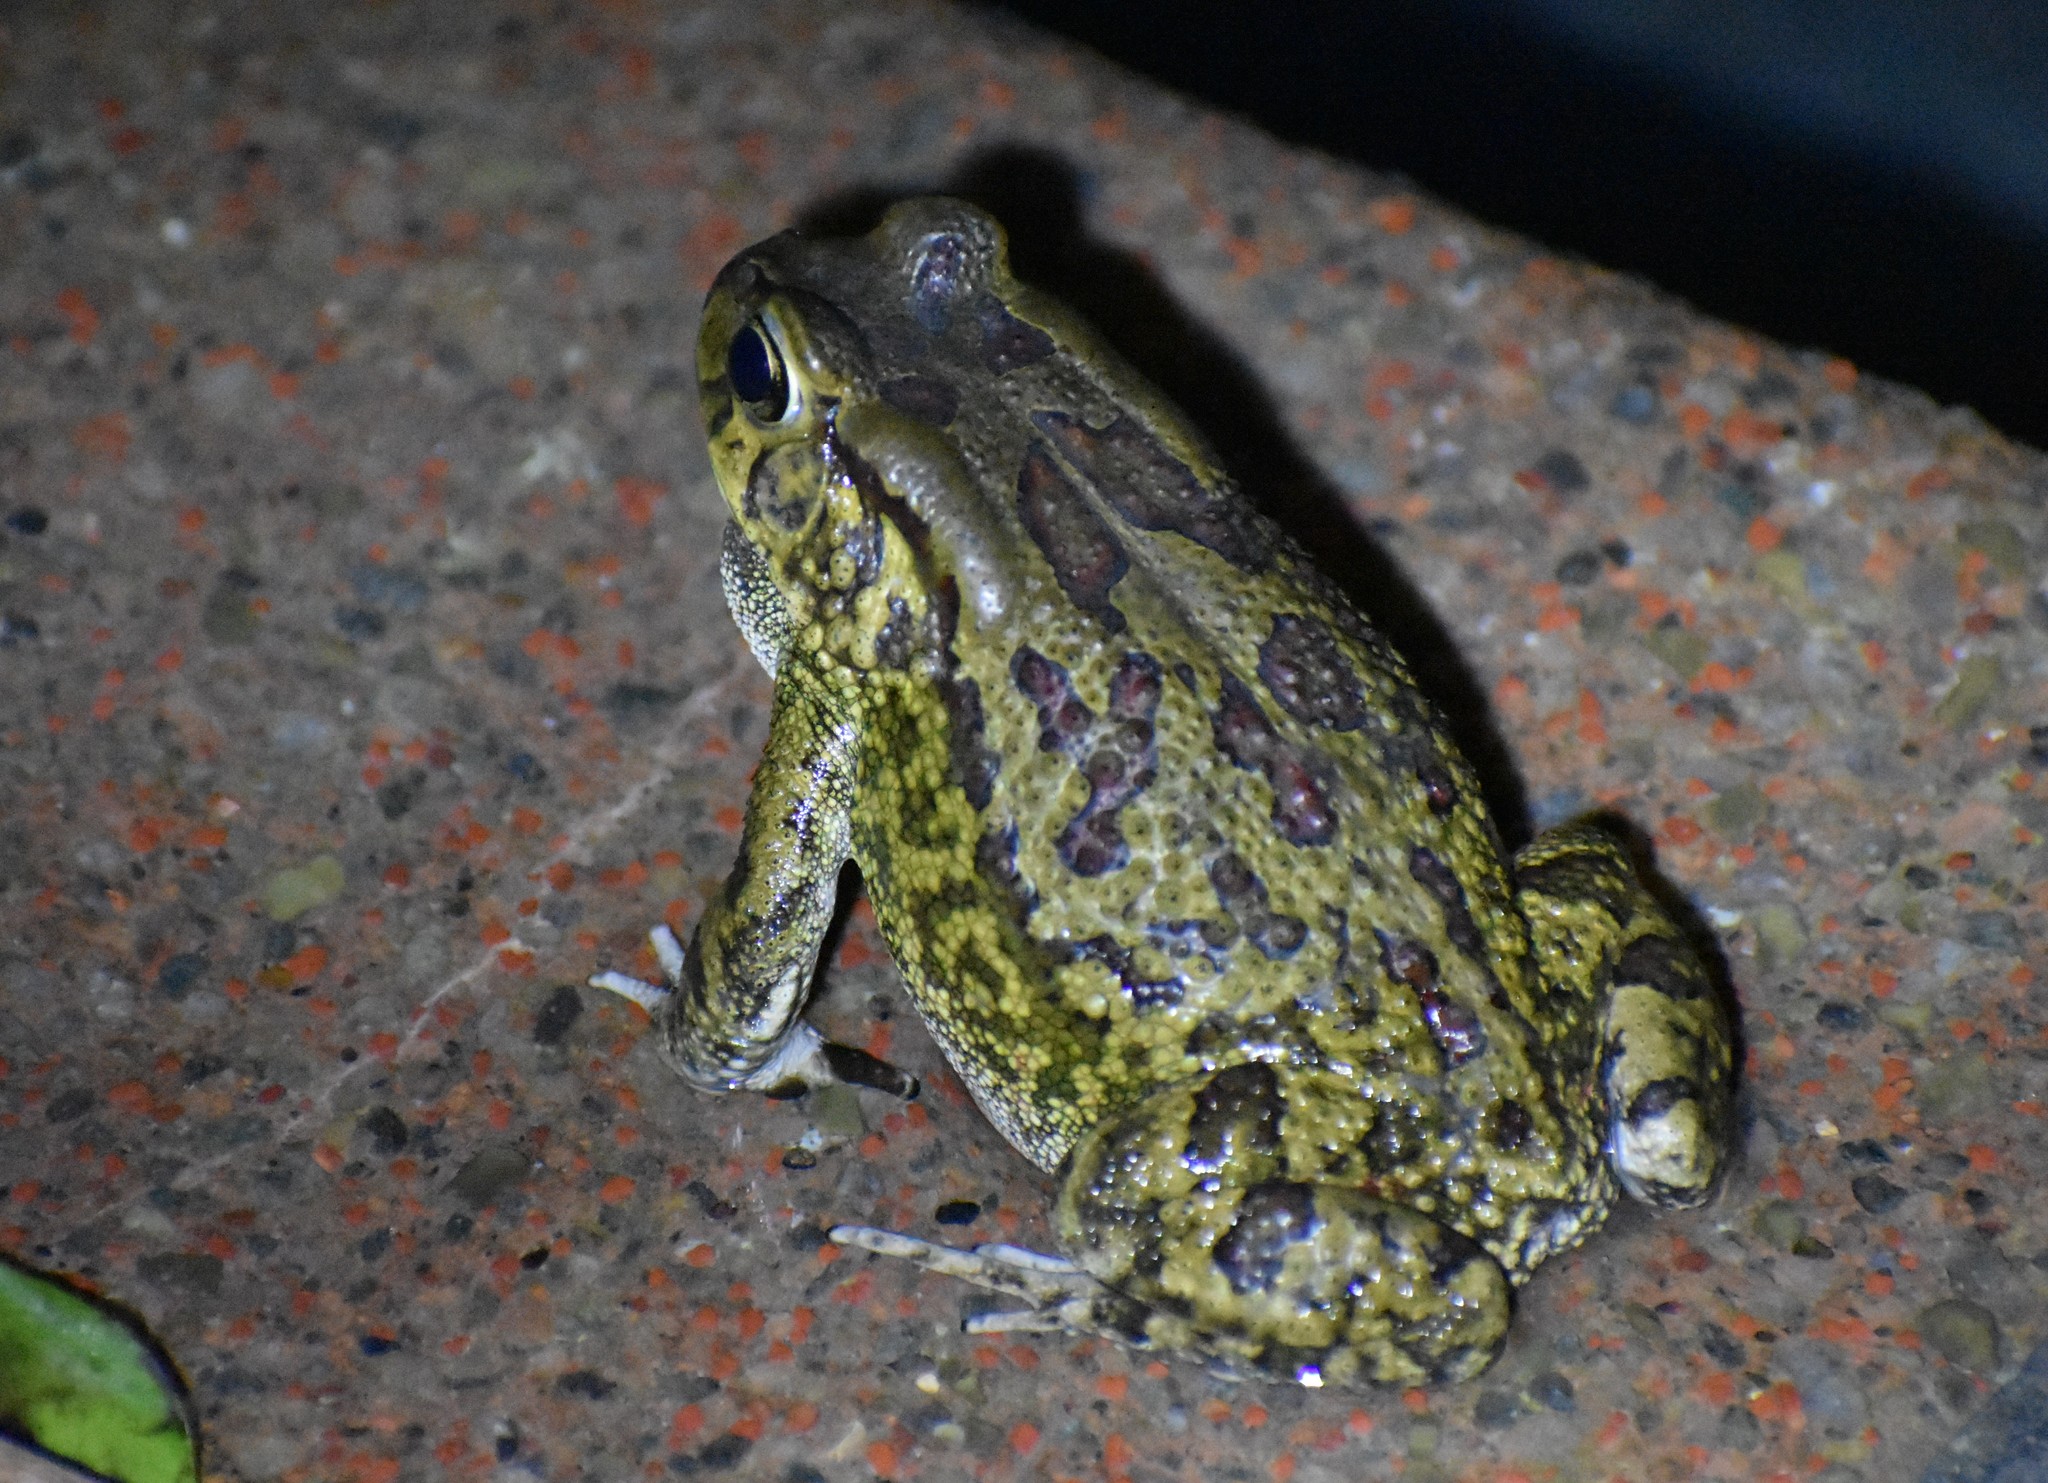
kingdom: Animalia
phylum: Chordata
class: Amphibia
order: Anura
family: Bufonidae
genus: Sclerophrys
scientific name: Sclerophrys garmani
